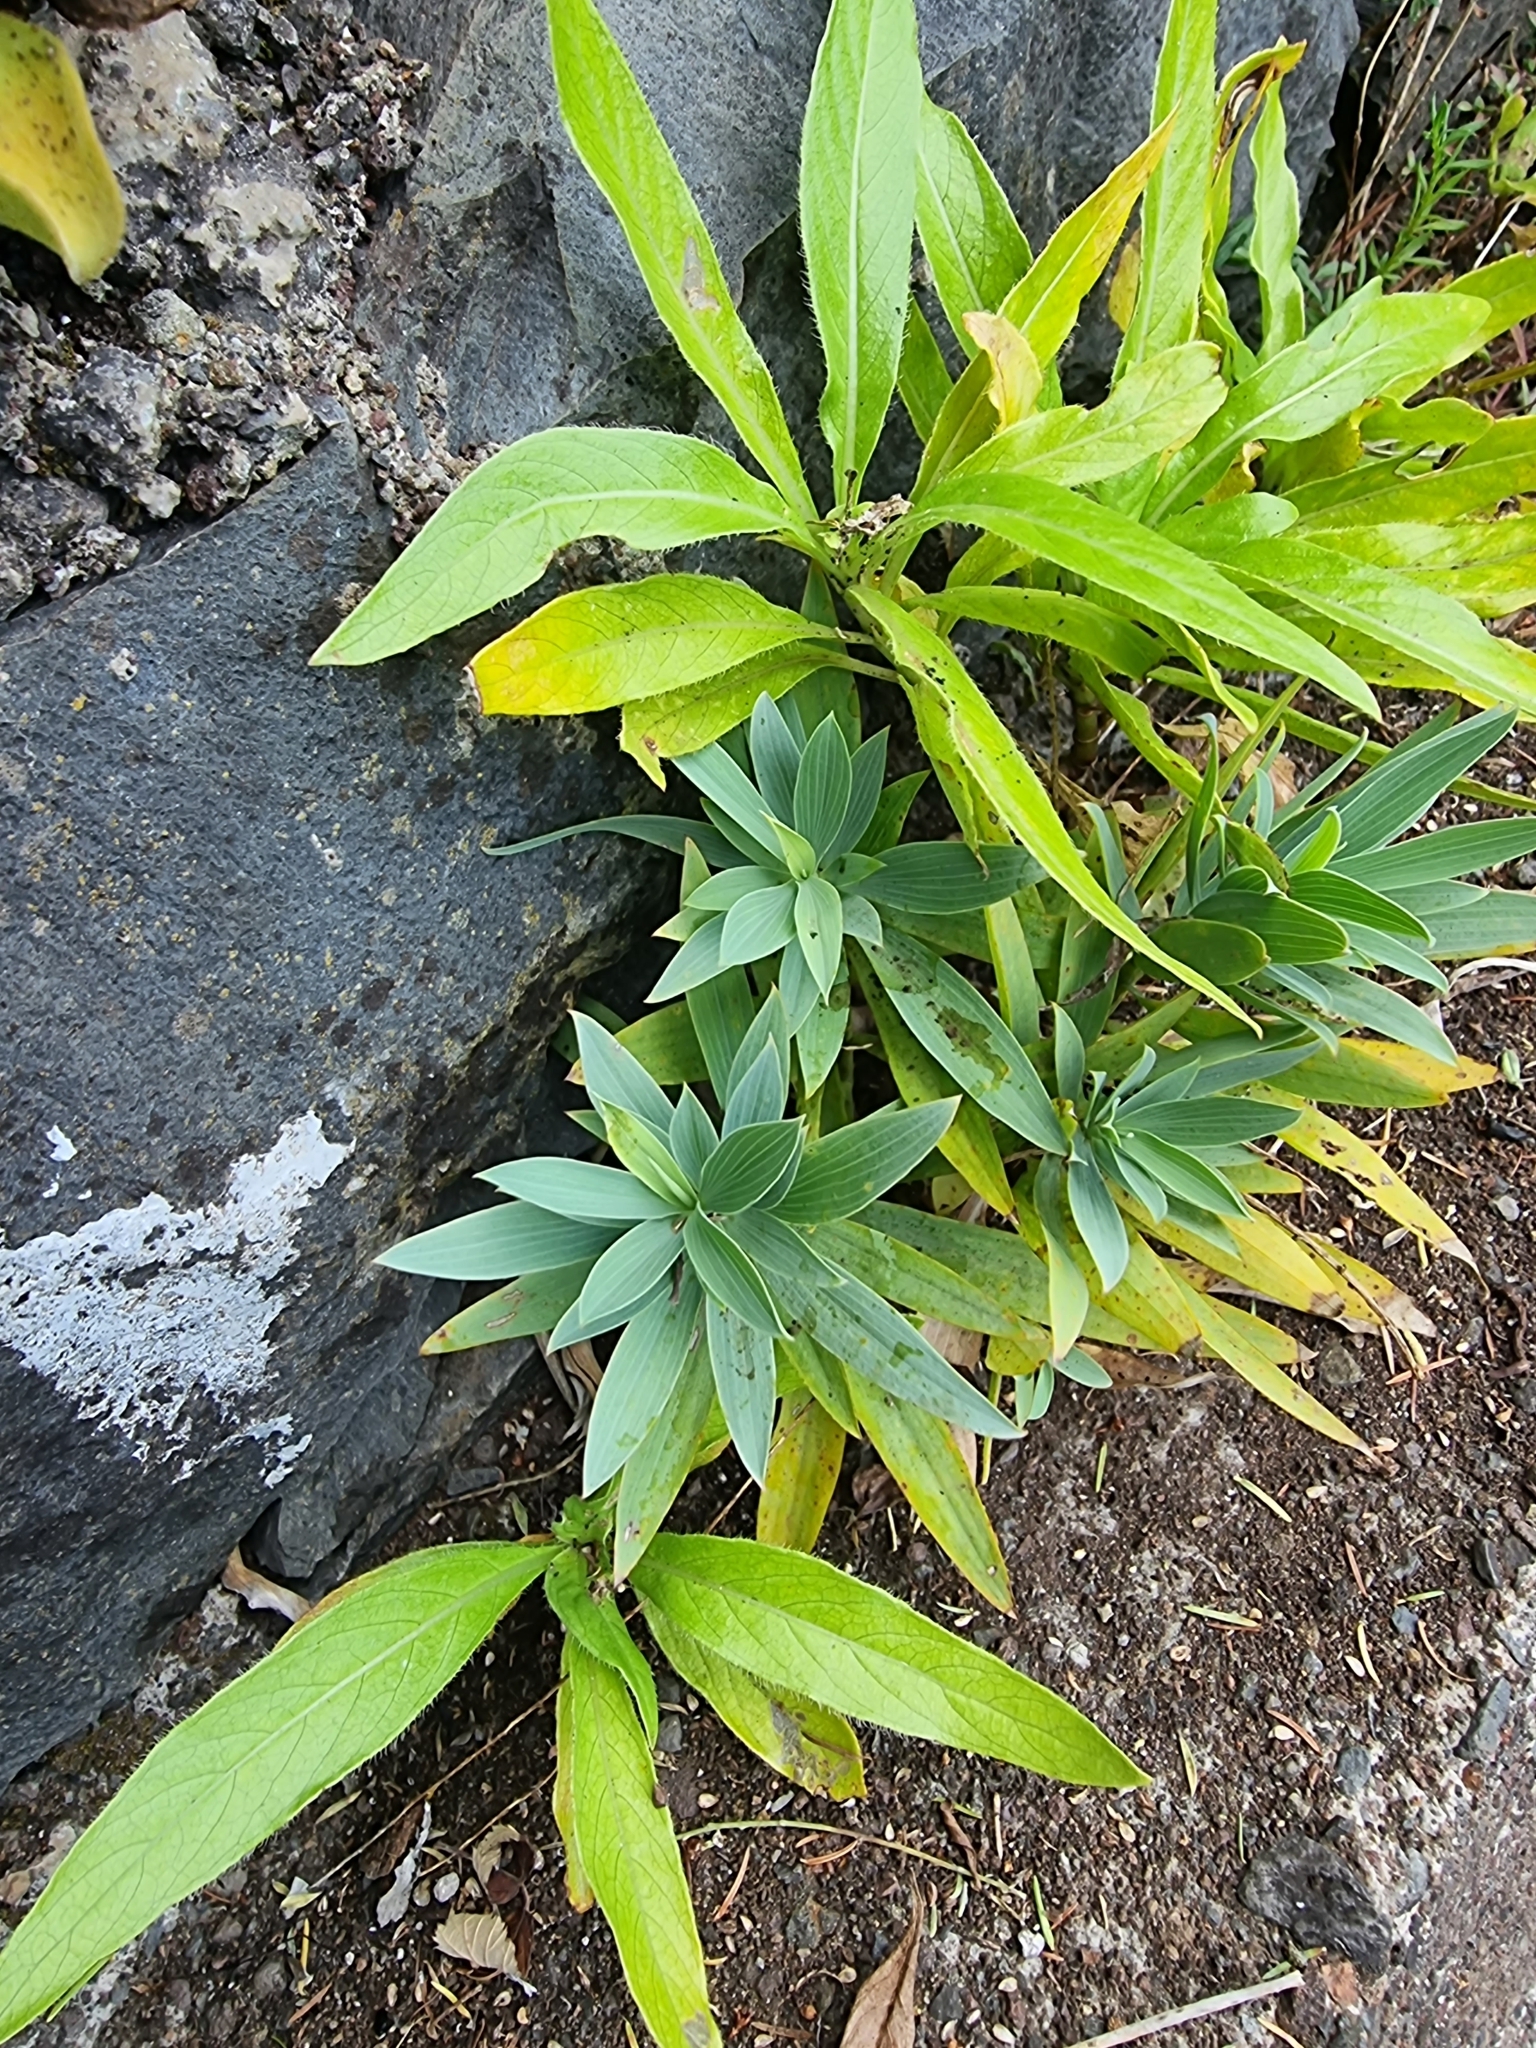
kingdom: Plantae
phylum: Tracheophyta
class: Magnoliopsida
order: Apiales
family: Apiaceae
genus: Bupleurum
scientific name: Bupleurum salicifolium
